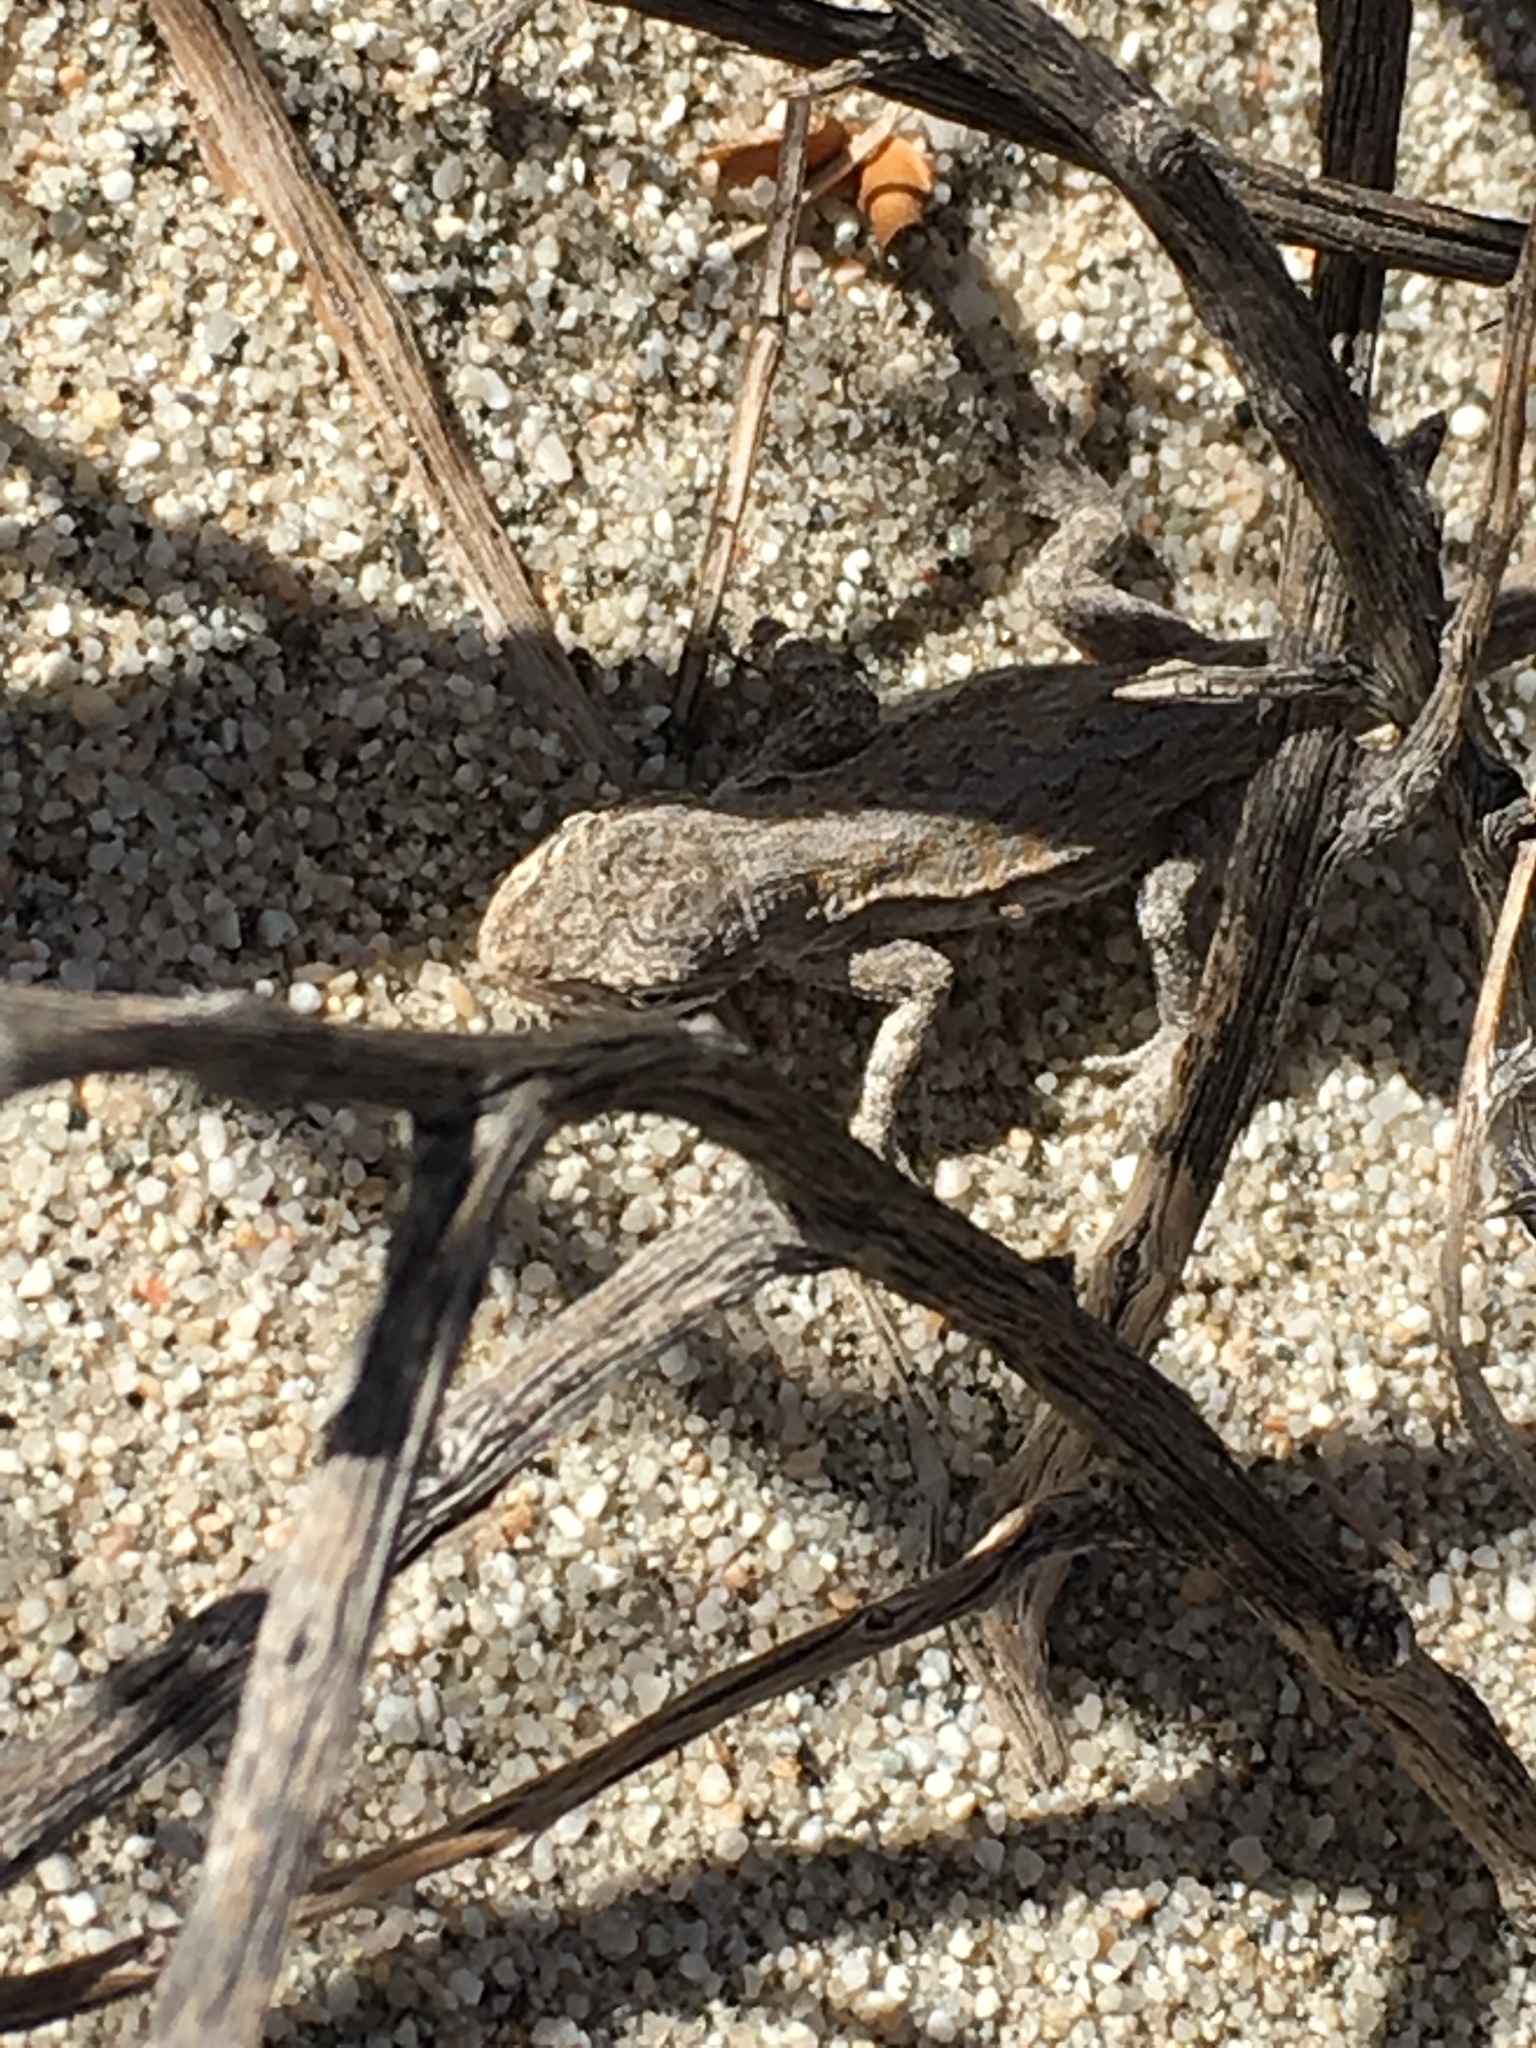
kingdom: Animalia
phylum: Chordata
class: Squamata
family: Phrynosomatidae
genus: Urosaurus
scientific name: Urosaurus graciosus
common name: Long-tailed brush lizard
